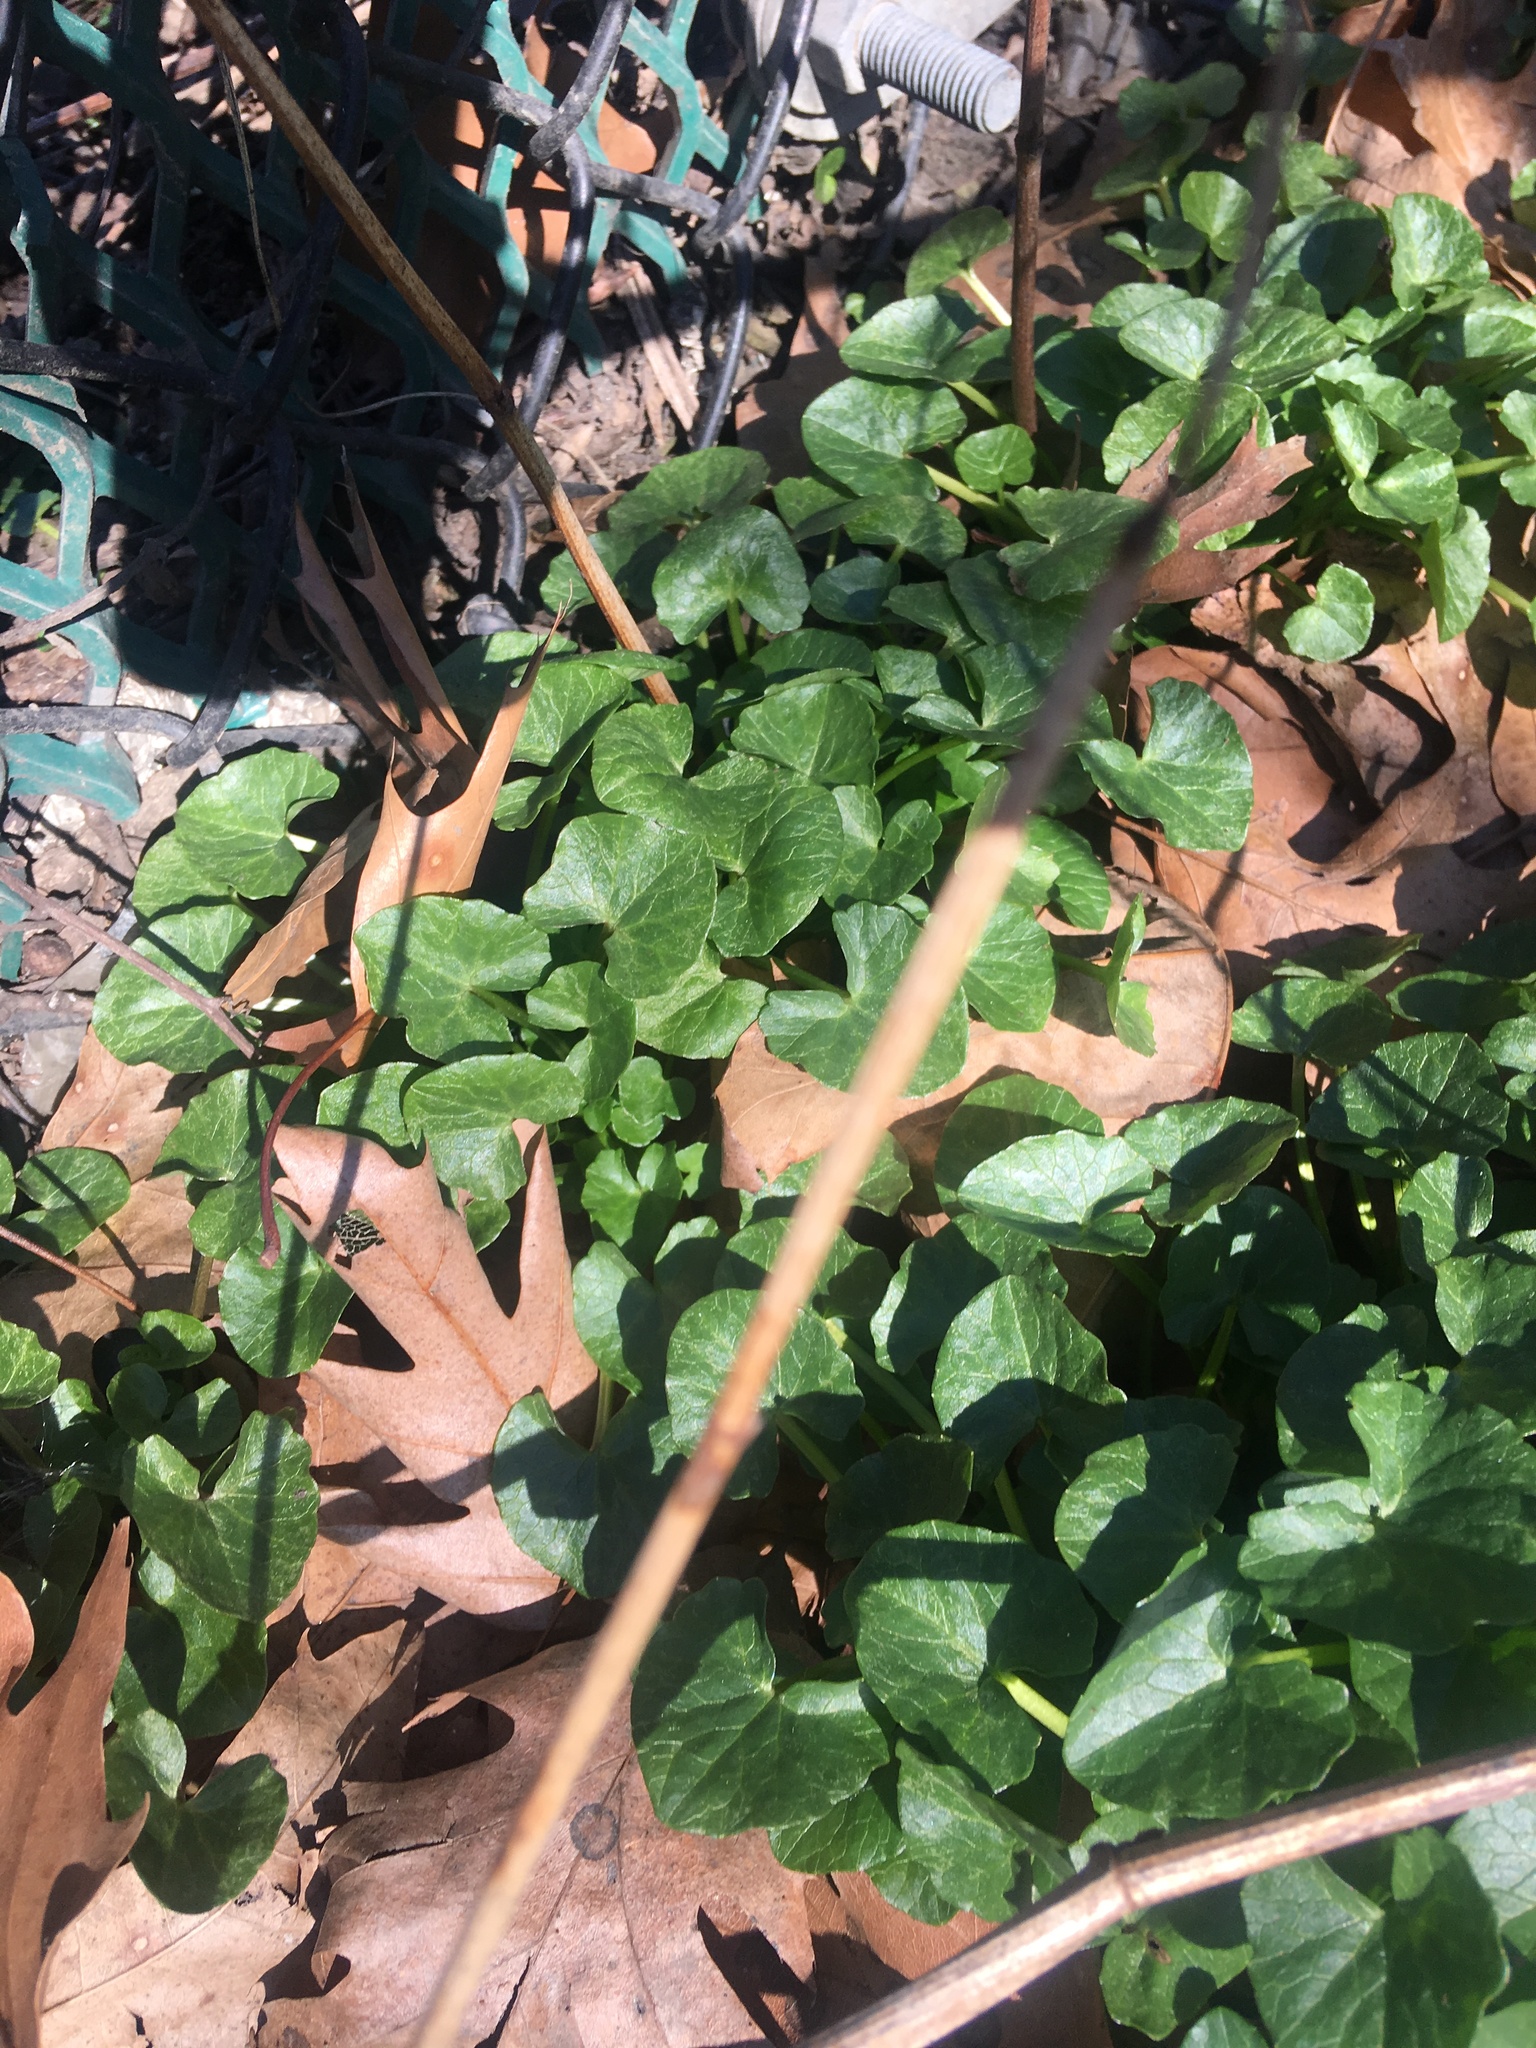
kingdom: Plantae
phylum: Tracheophyta
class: Magnoliopsida
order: Ranunculales
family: Ranunculaceae
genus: Ficaria
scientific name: Ficaria verna
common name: Lesser celandine
